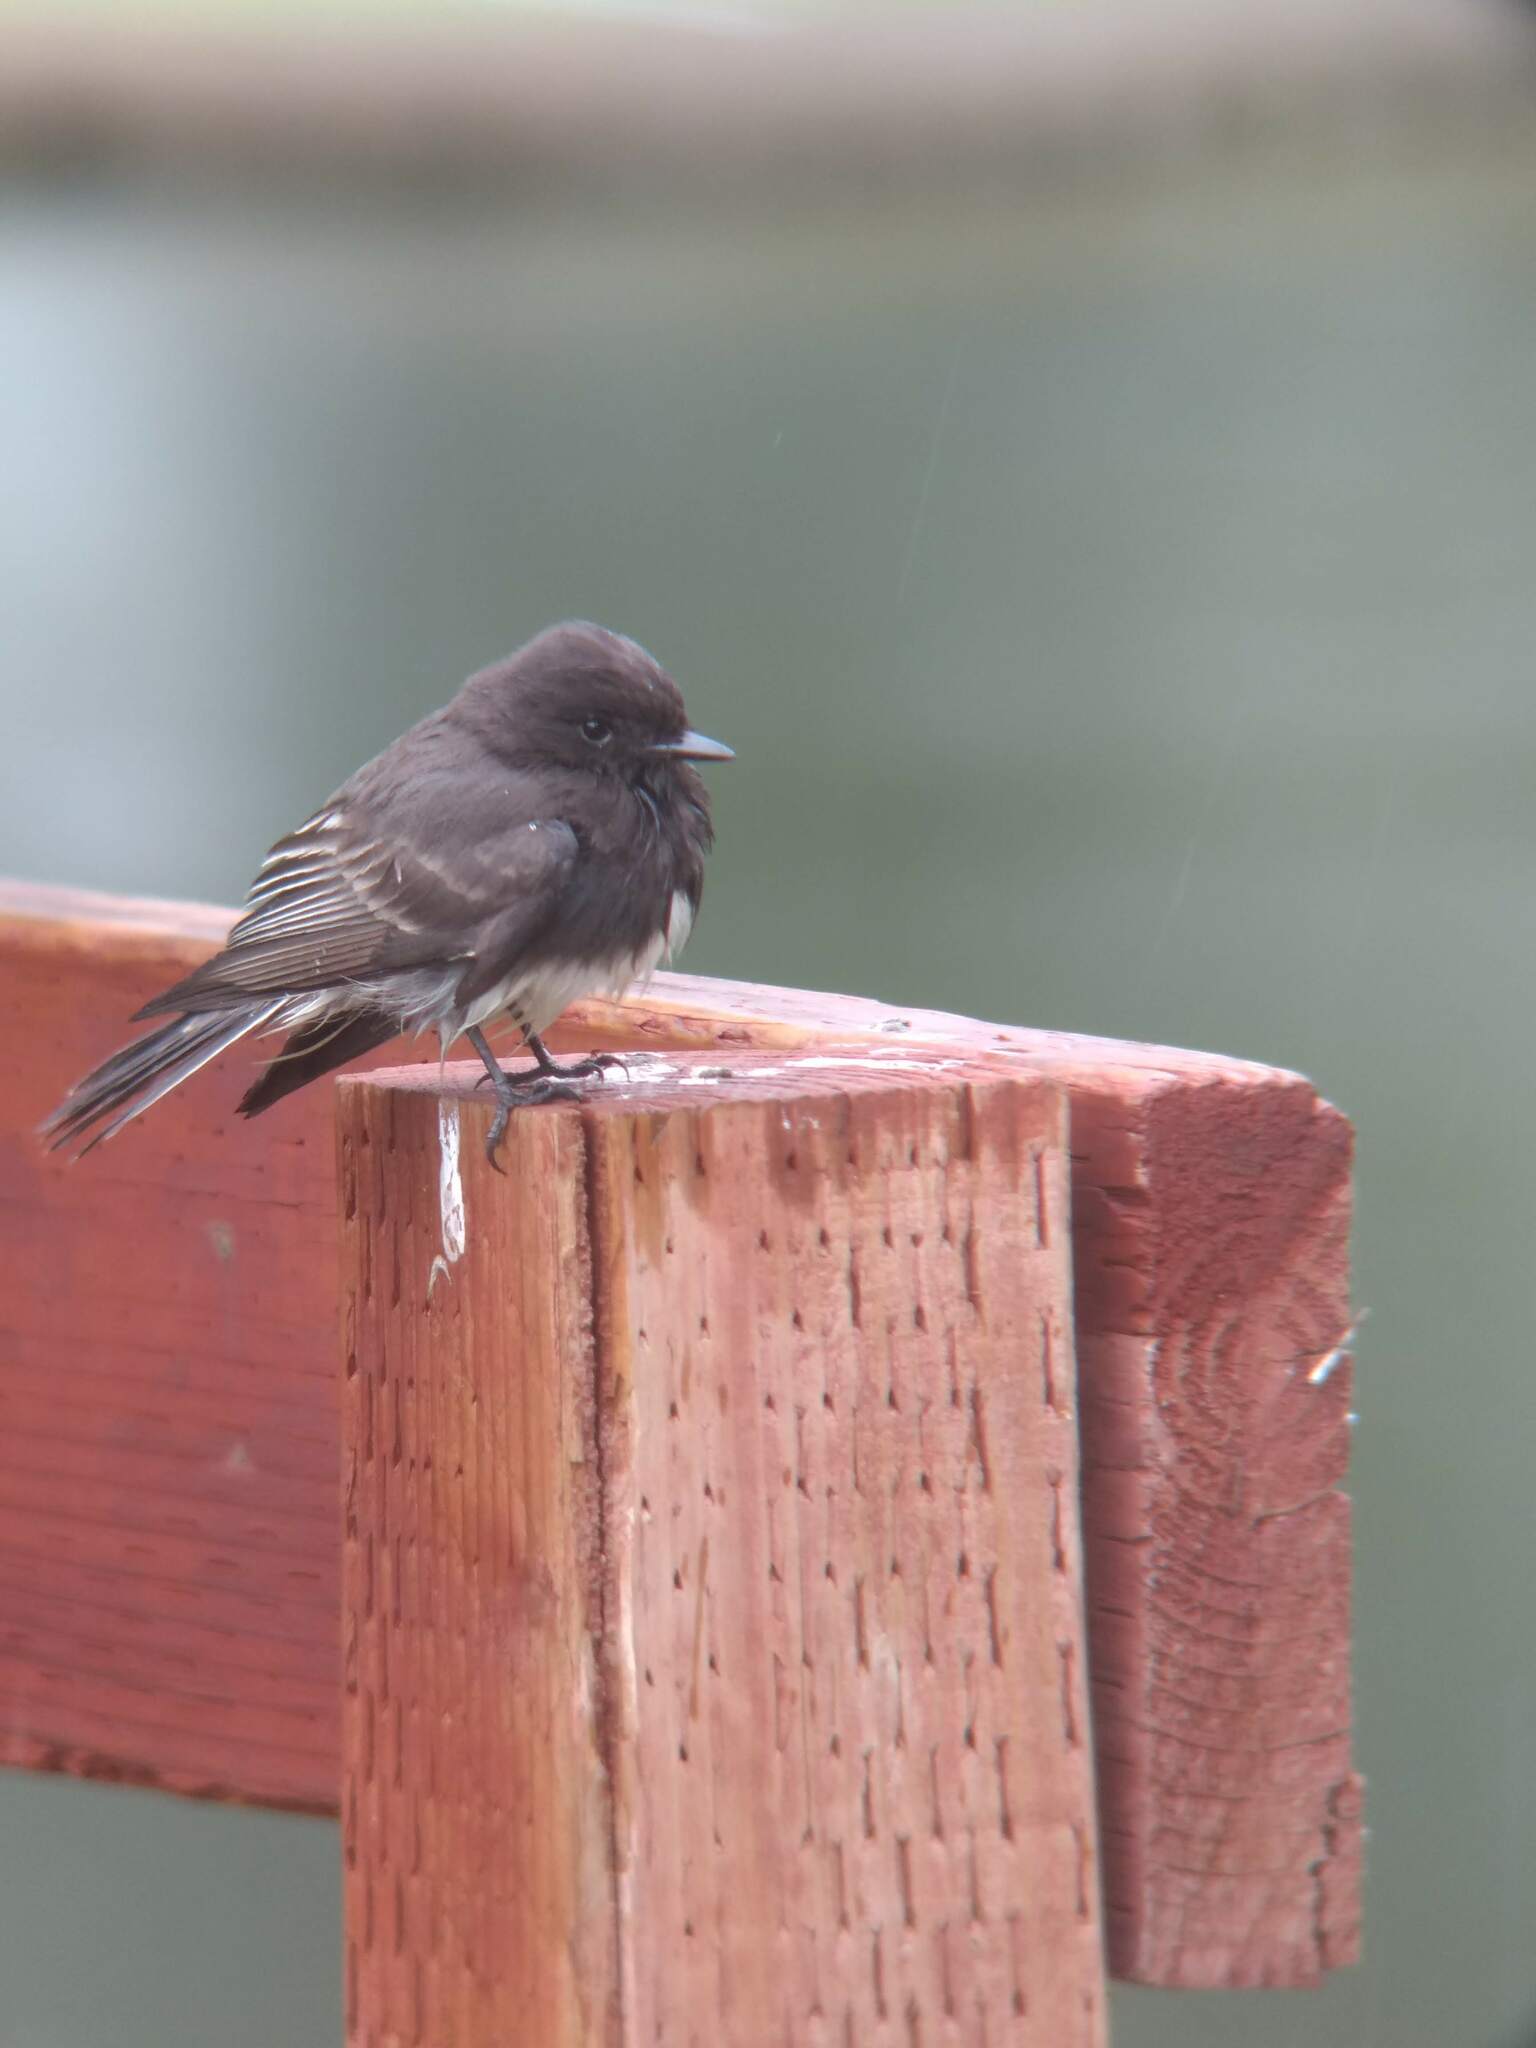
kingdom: Animalia
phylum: Chordata
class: Aves
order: Passeriformes
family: Tyrannidae
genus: Sayornis
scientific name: Sayornis nigricans
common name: Black phoebe
